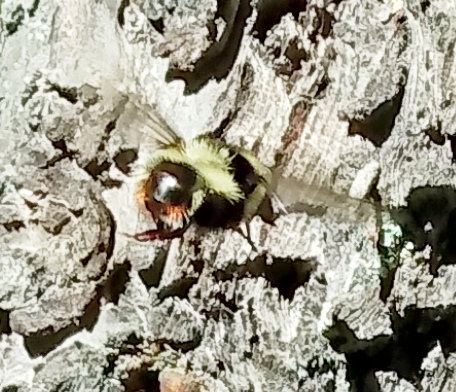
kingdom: Animalia
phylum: Arthropoda
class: Insecta
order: Diptera
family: Syrphidae
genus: Criorhina
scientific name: Criorhina coquilletti
